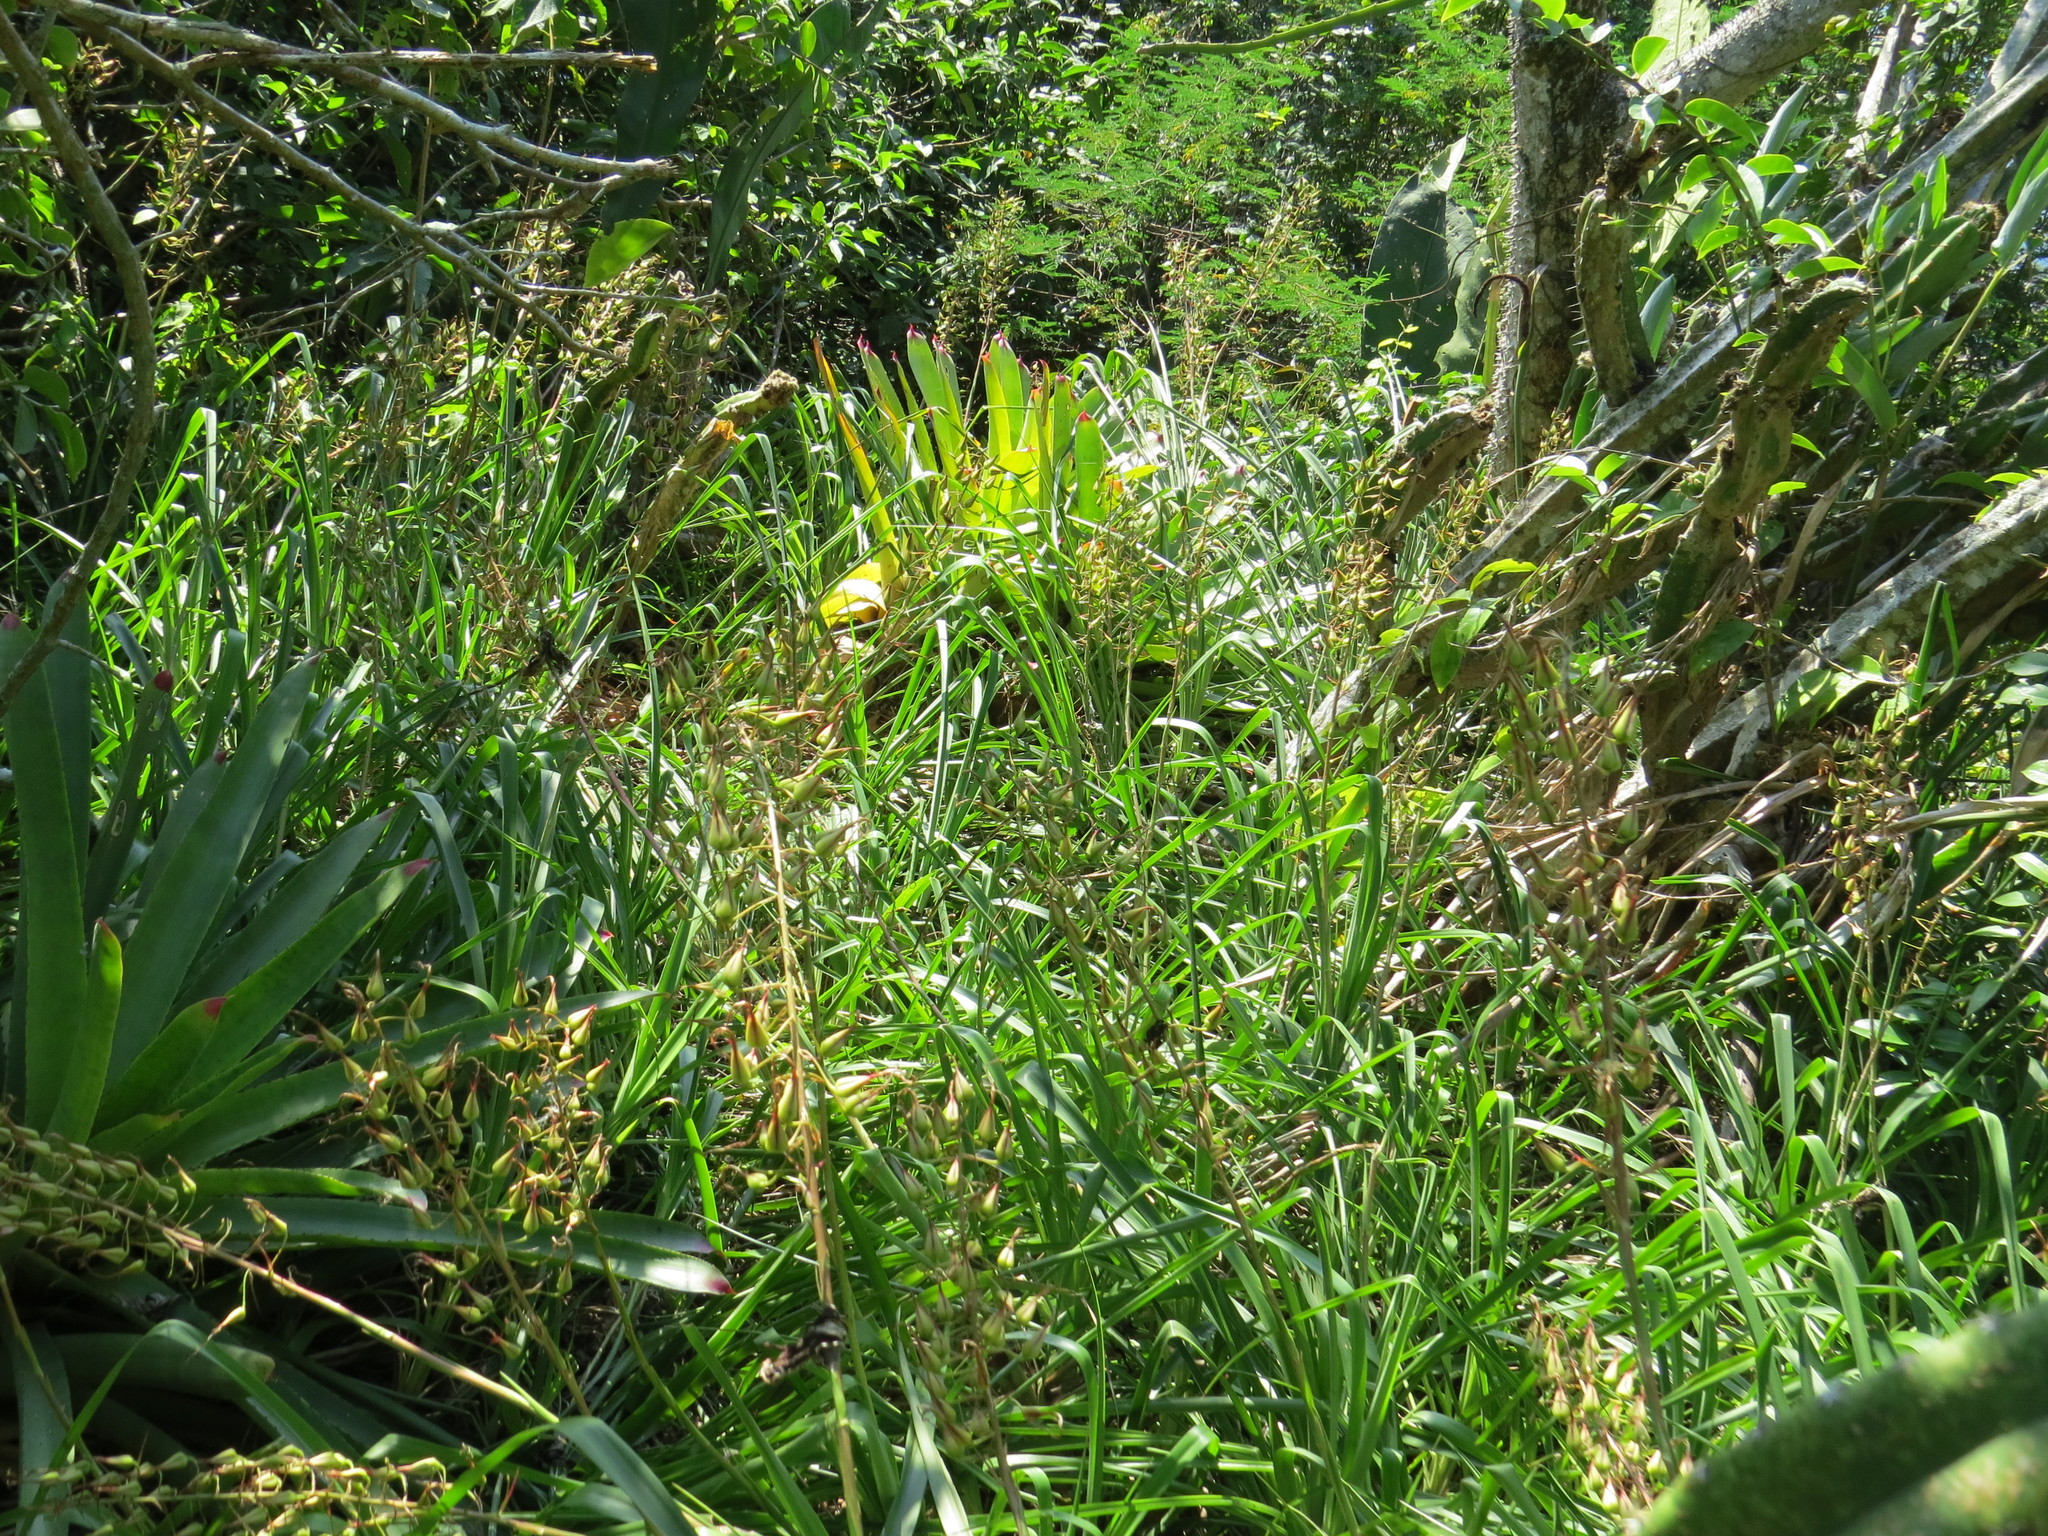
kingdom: Plantae
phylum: Tracheophyta
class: Liliopsida
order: Poales
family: Bromeliaceae
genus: Pitcairnia
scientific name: Pitcairnia albiflos
